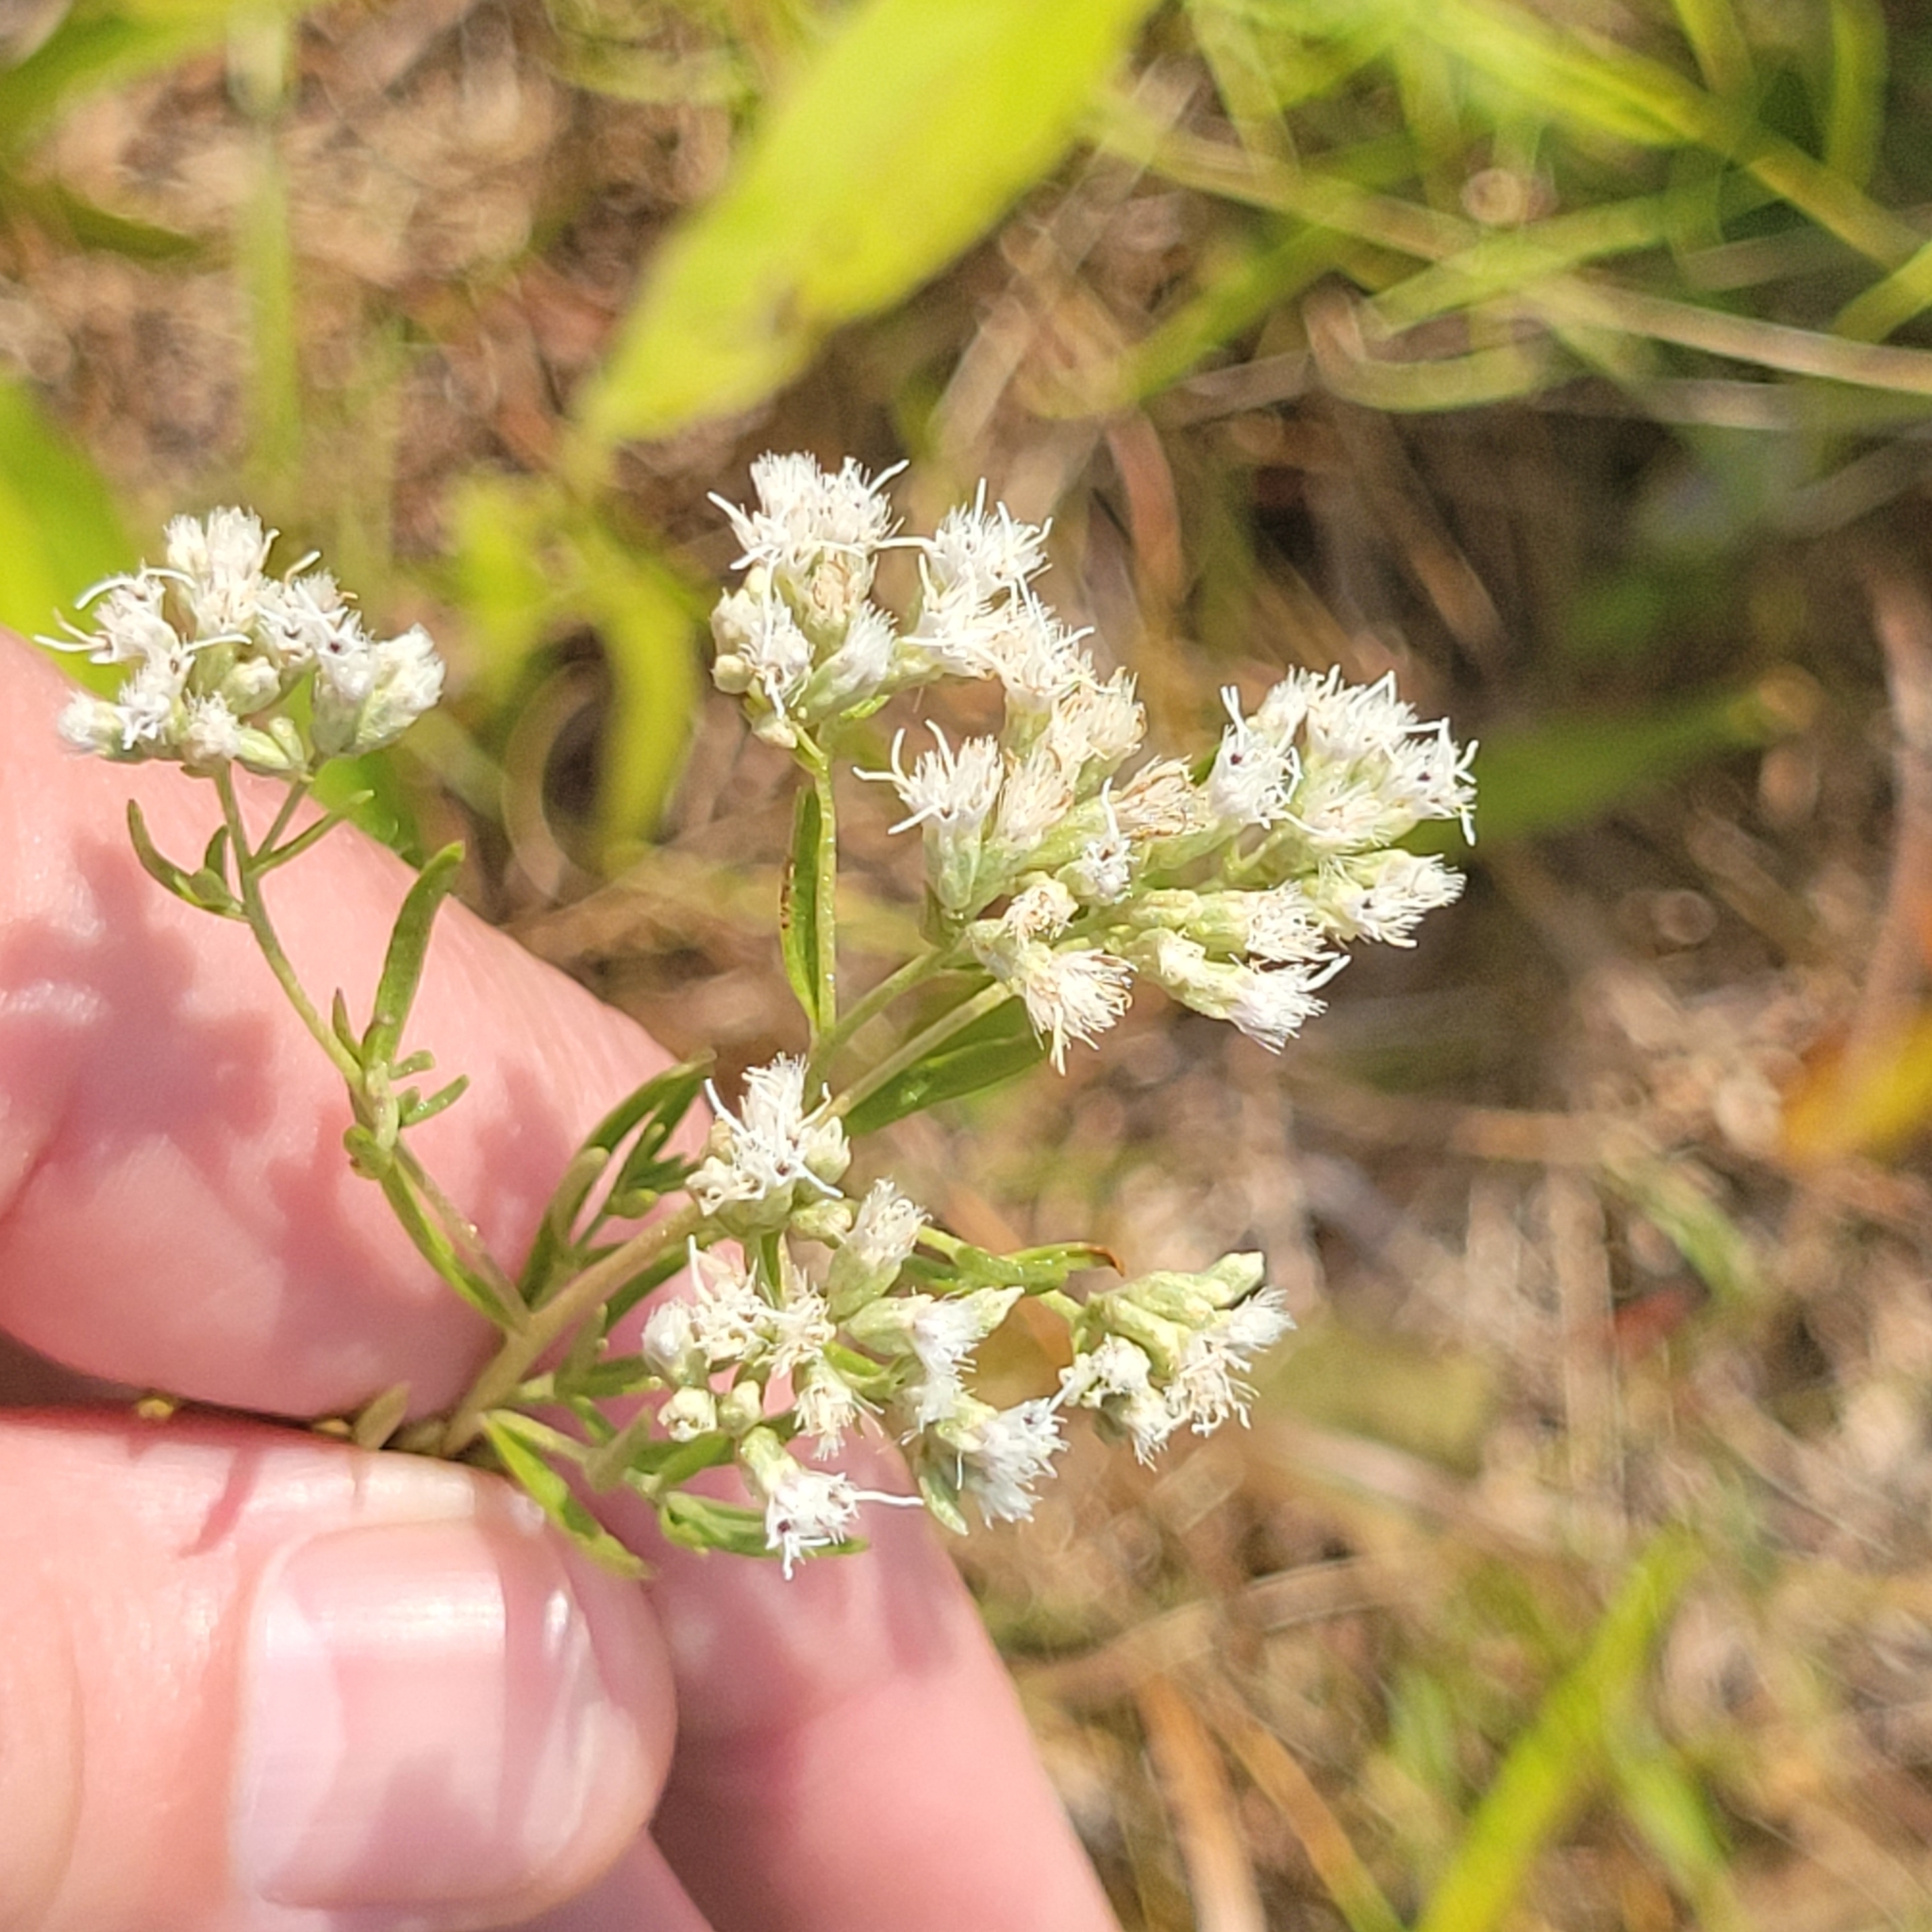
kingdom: Plantae
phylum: Tracheophyta
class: Magnoliopsida
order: Asterales
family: Asteraceae
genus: Eupatorium
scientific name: Eupatorium hyssopifolium
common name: Hyssop-leaf thoroughwort
